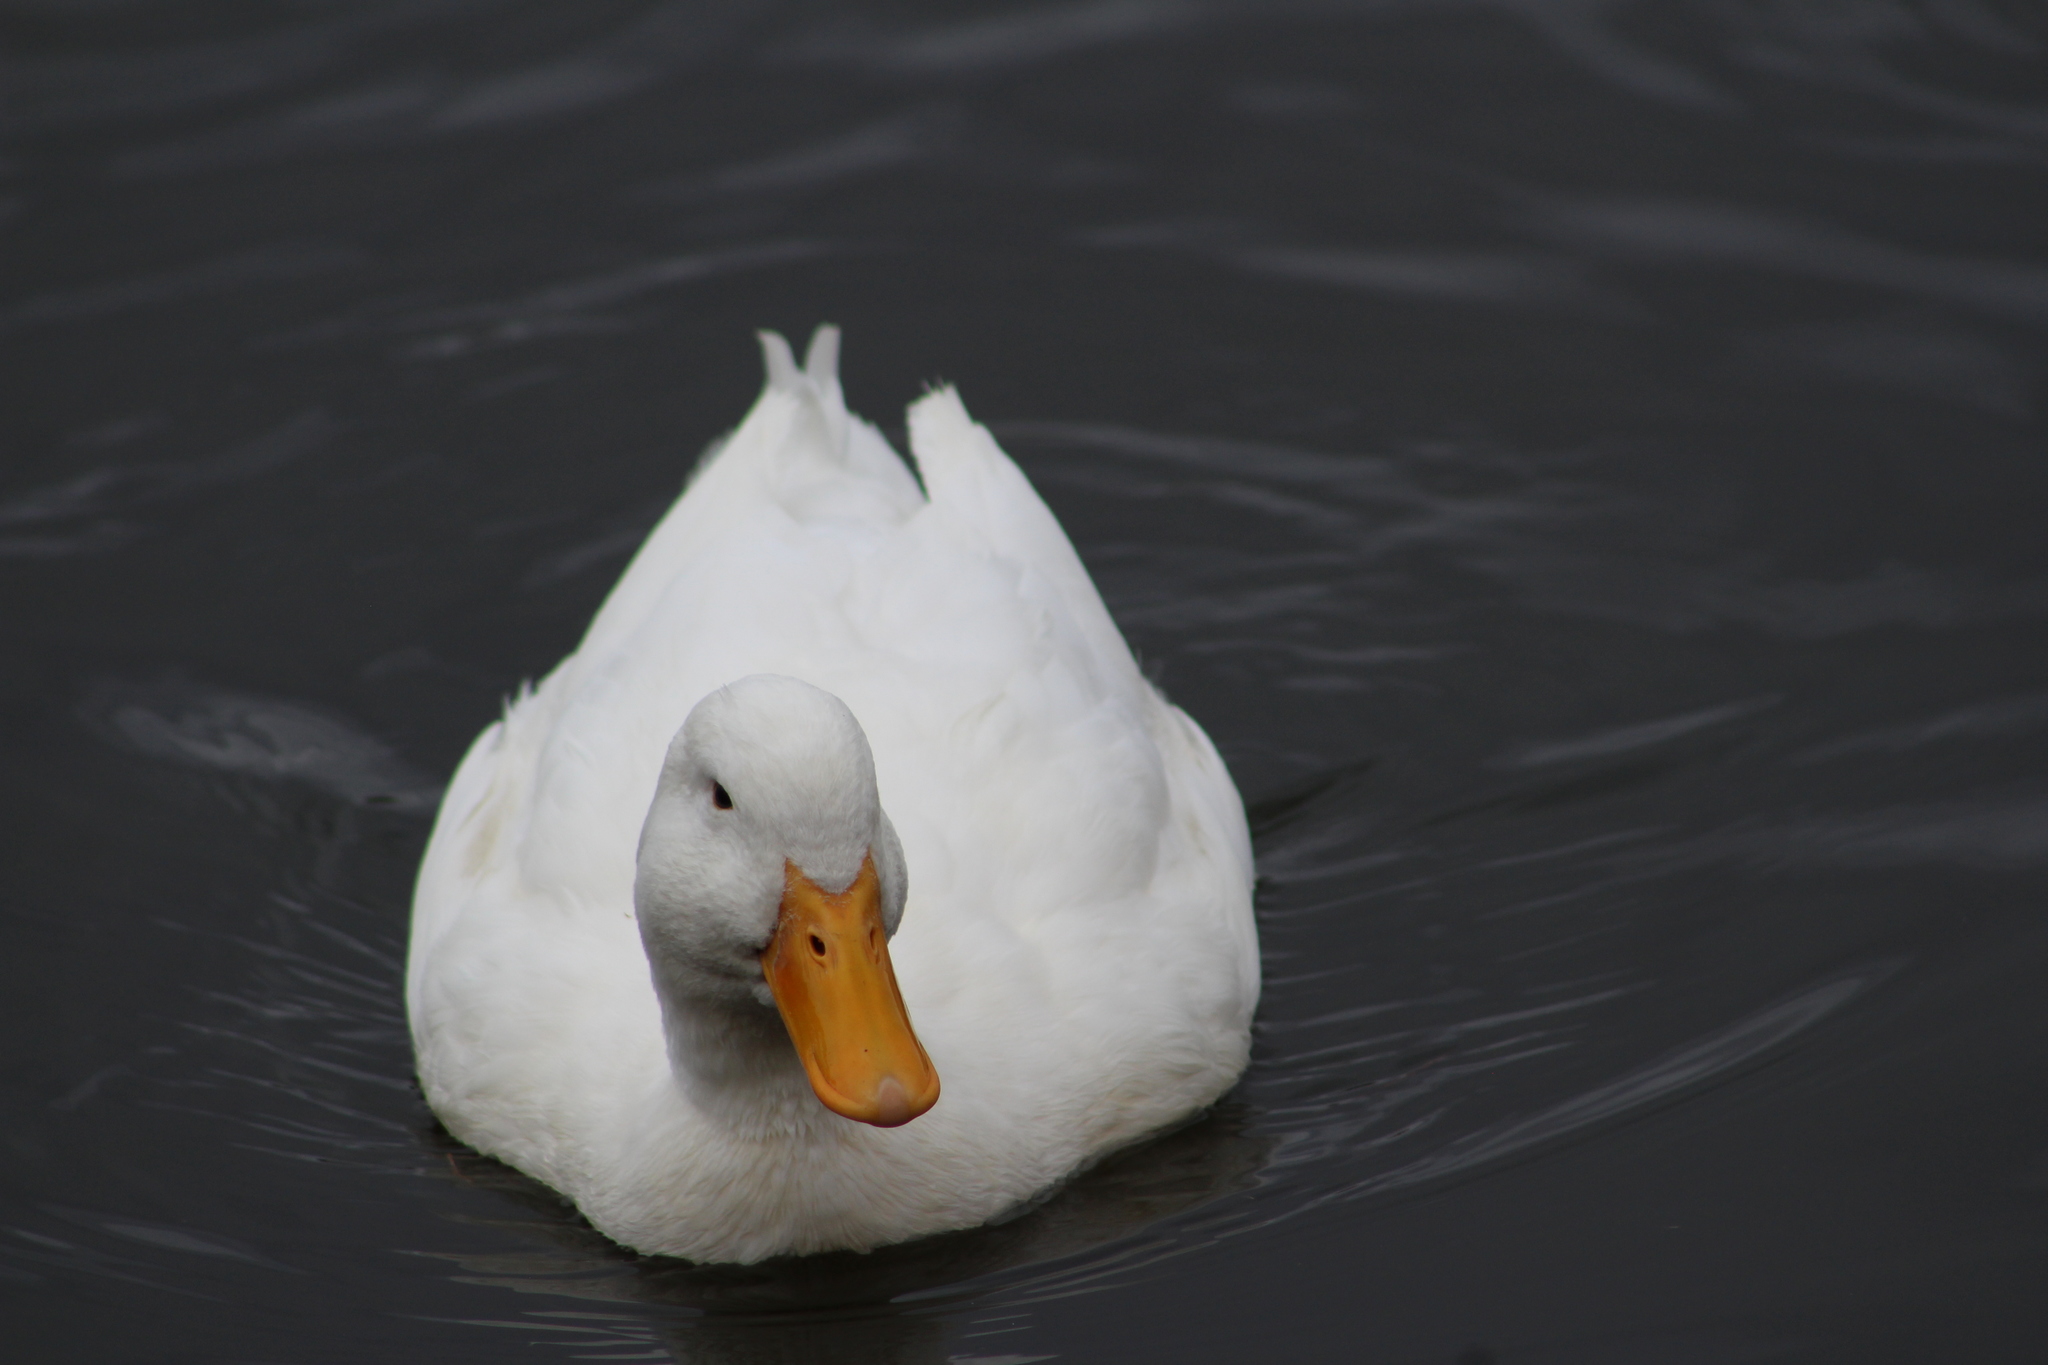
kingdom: Animalia
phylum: Chordata
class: Aves
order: Anseriformes
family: Anatidae
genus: Anas
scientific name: Anas platyrhynchos
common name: Mallard
